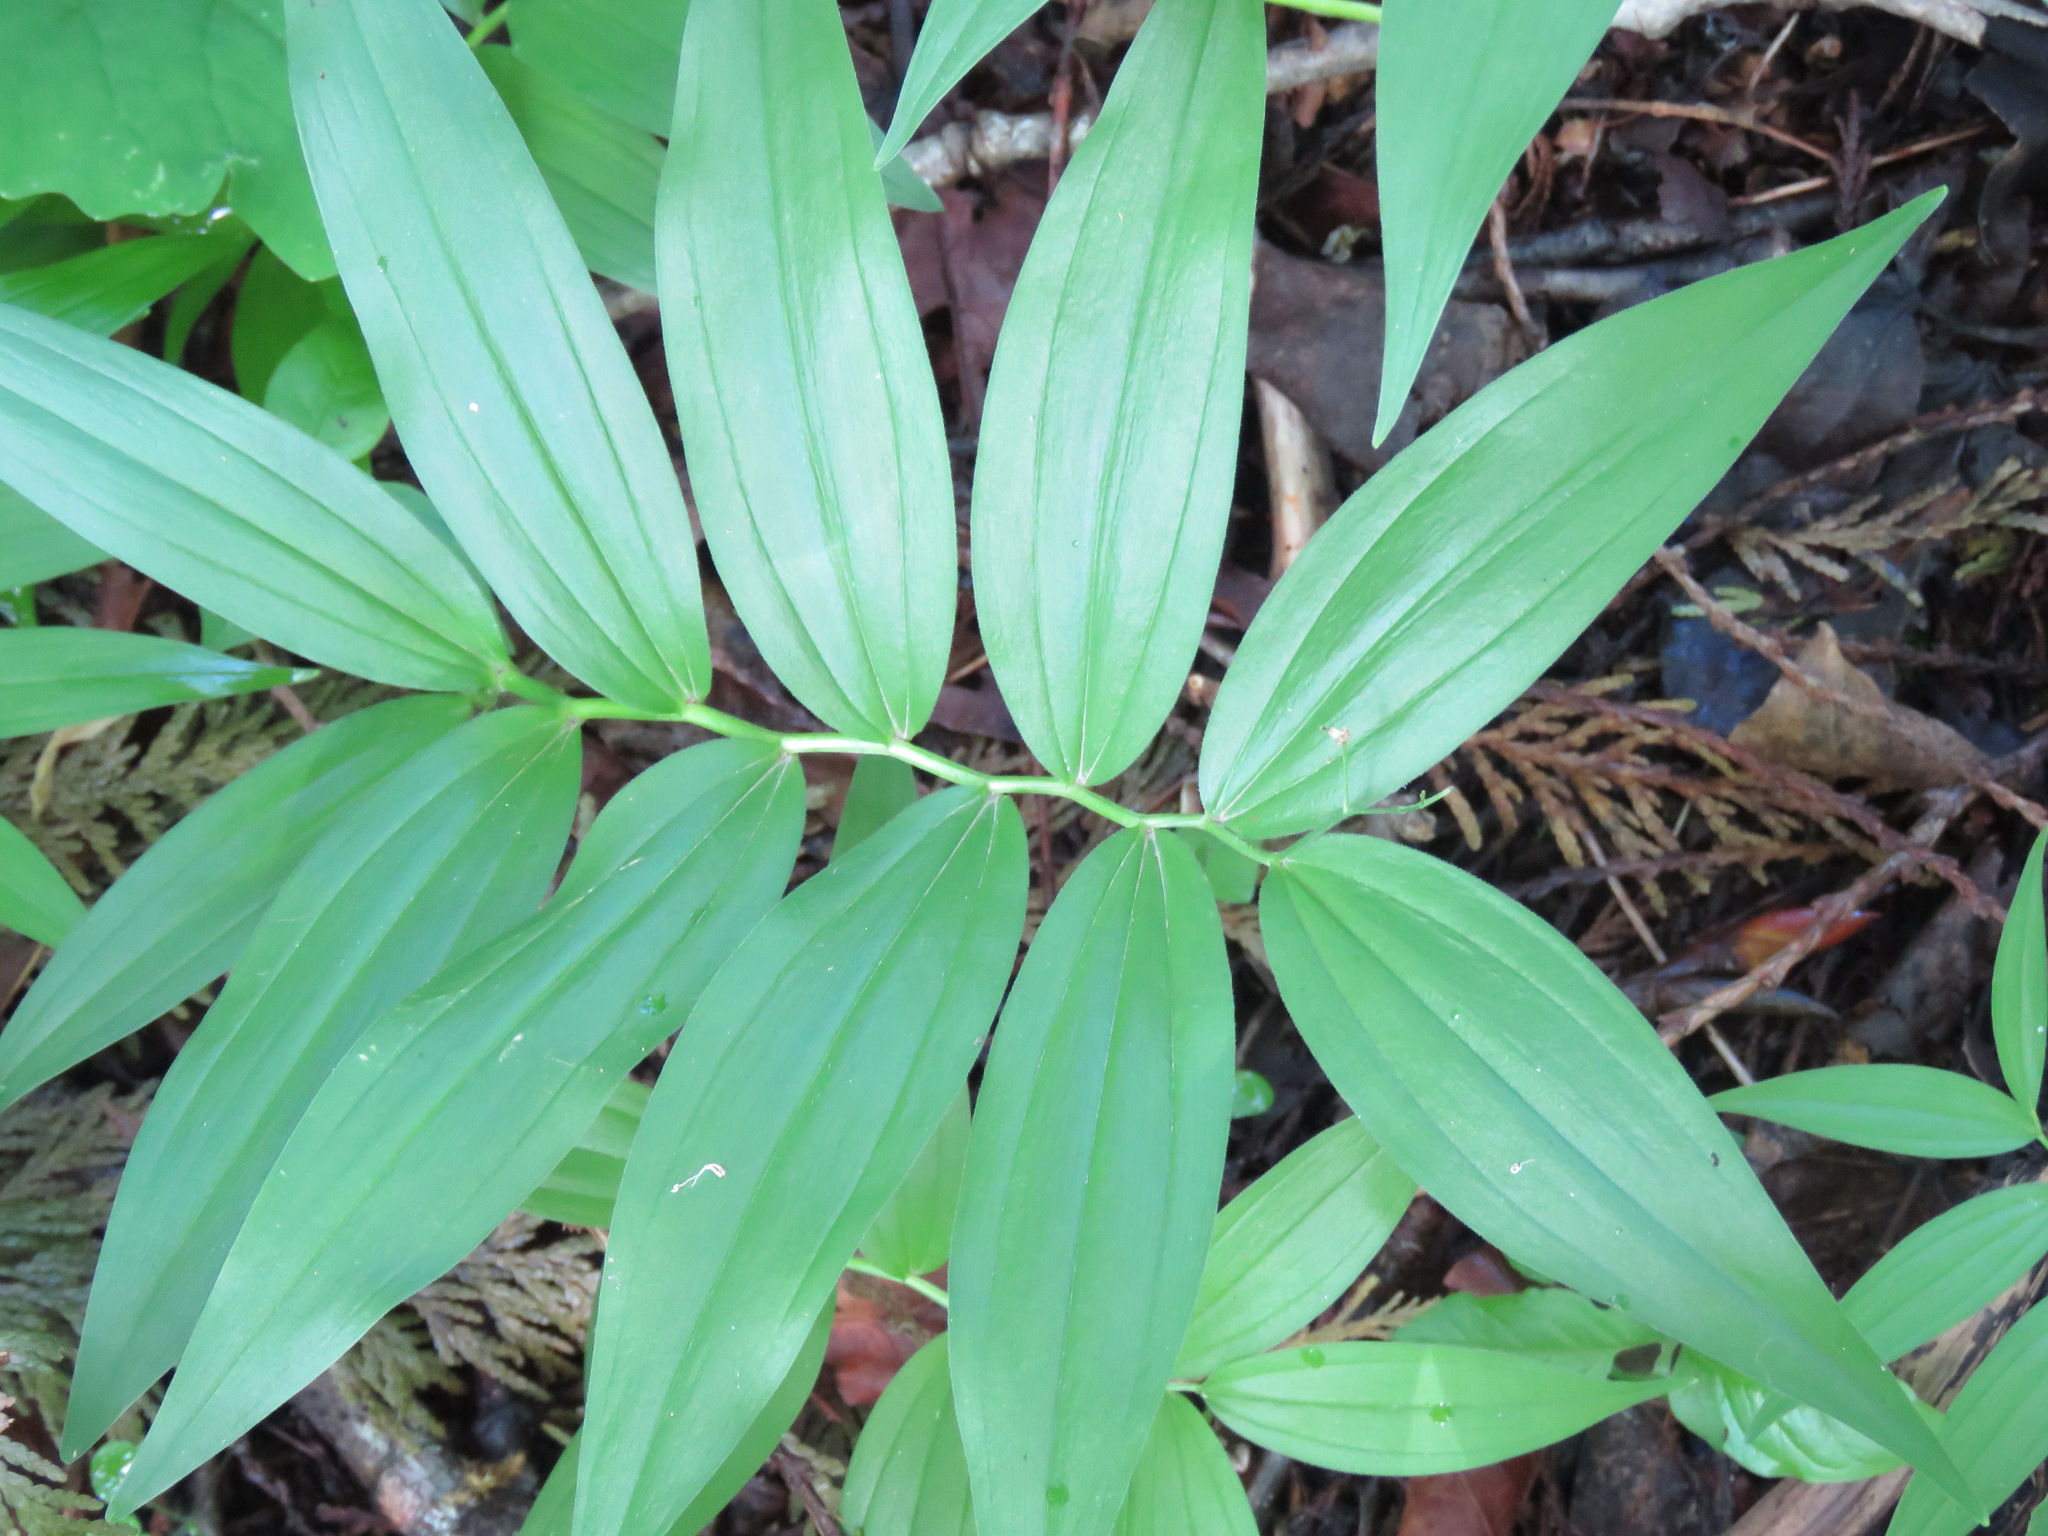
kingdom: Plantae
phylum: Tracheophyta
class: Liliopsida
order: Asparagales
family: Asparagaceae
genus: Maianthemum
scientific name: Maianthemum stellatum
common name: Little false solomon's seal
